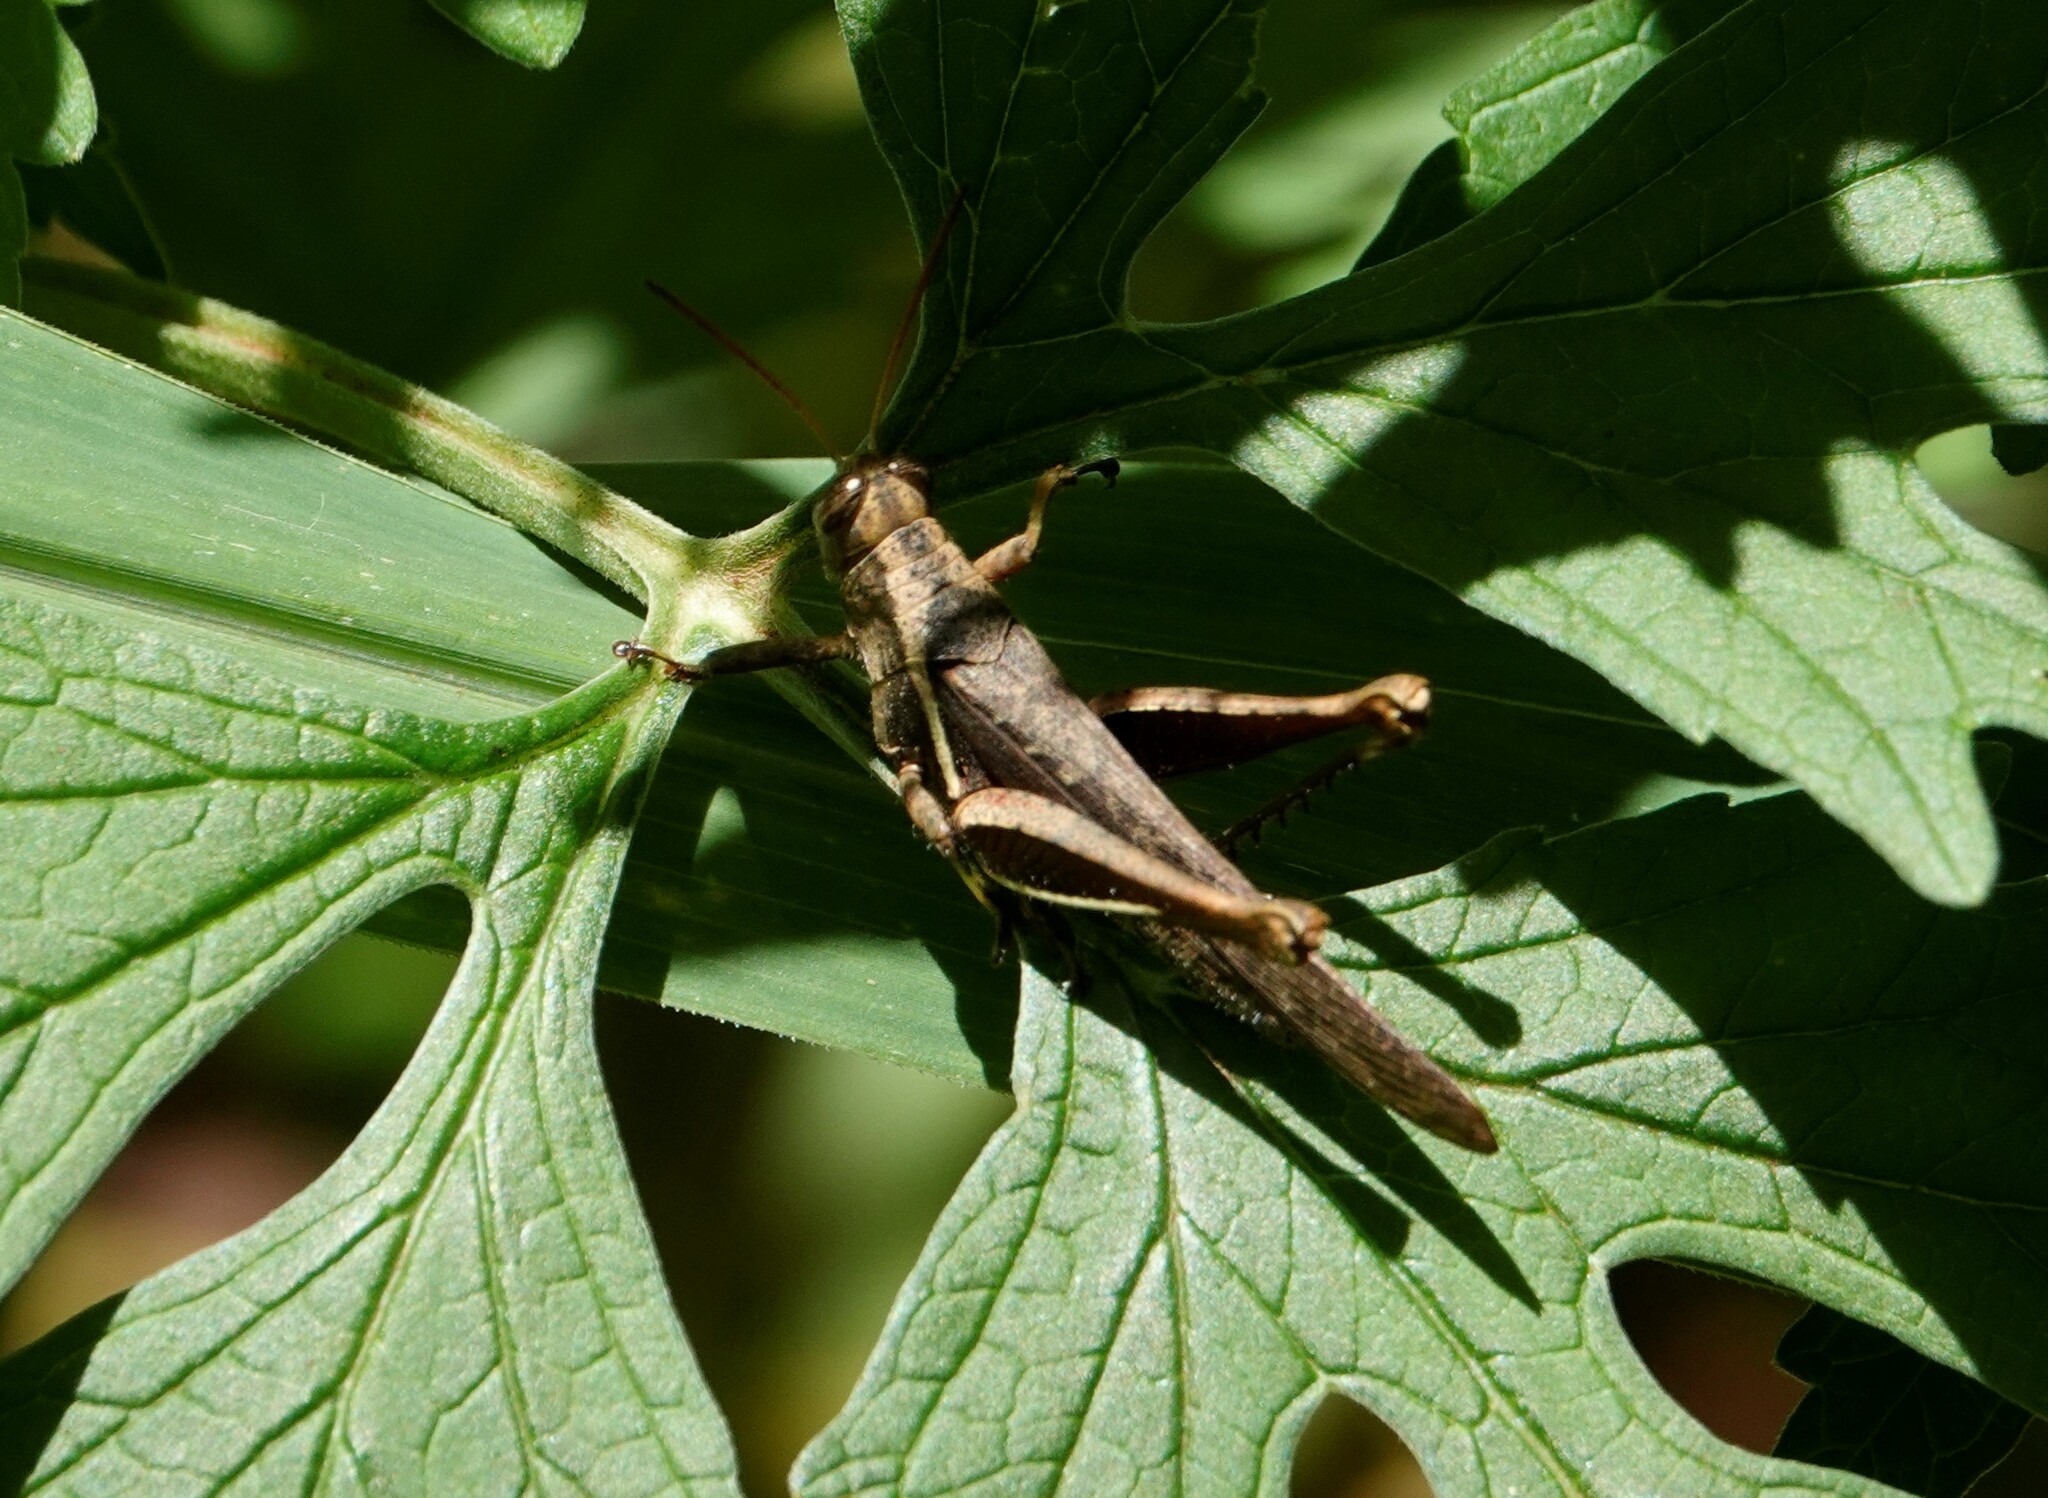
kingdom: Animalia
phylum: Arthropoda
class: Insecta
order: Orthoptera
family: Acrididae
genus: Abracris
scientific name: Abracris flavolineata
